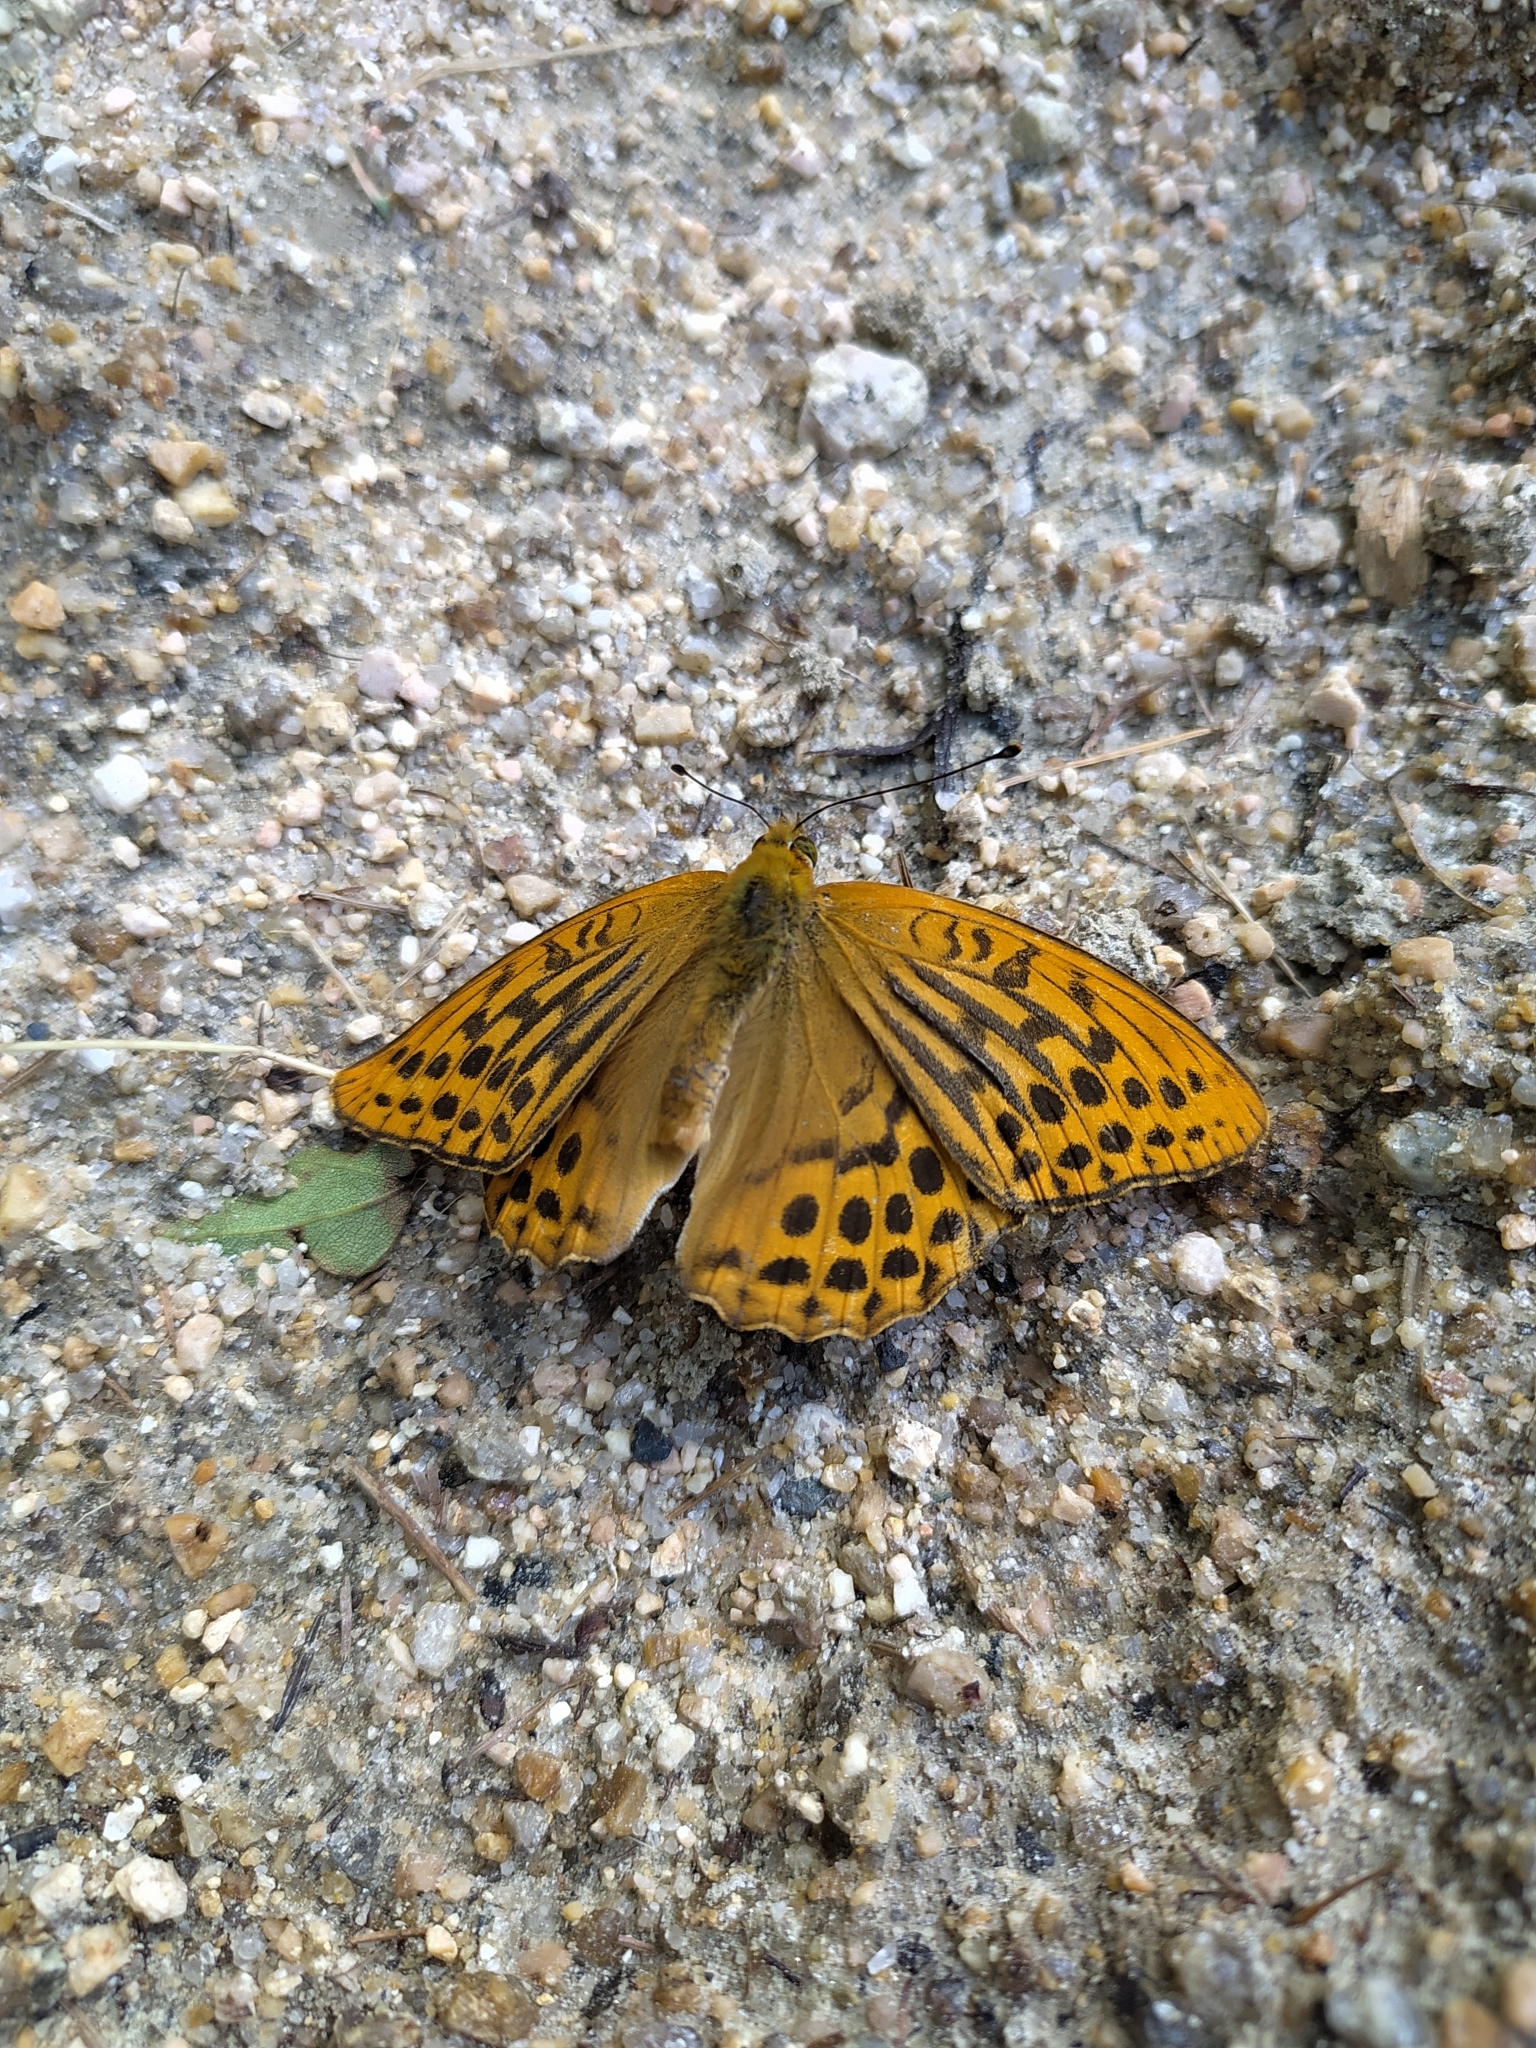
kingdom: Animalia
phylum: Arthropoda
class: Insecta
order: Lepidoptera
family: Nymphalidae
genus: Argynnis
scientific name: Argynnis paphia
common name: Silver-washed fritillary
